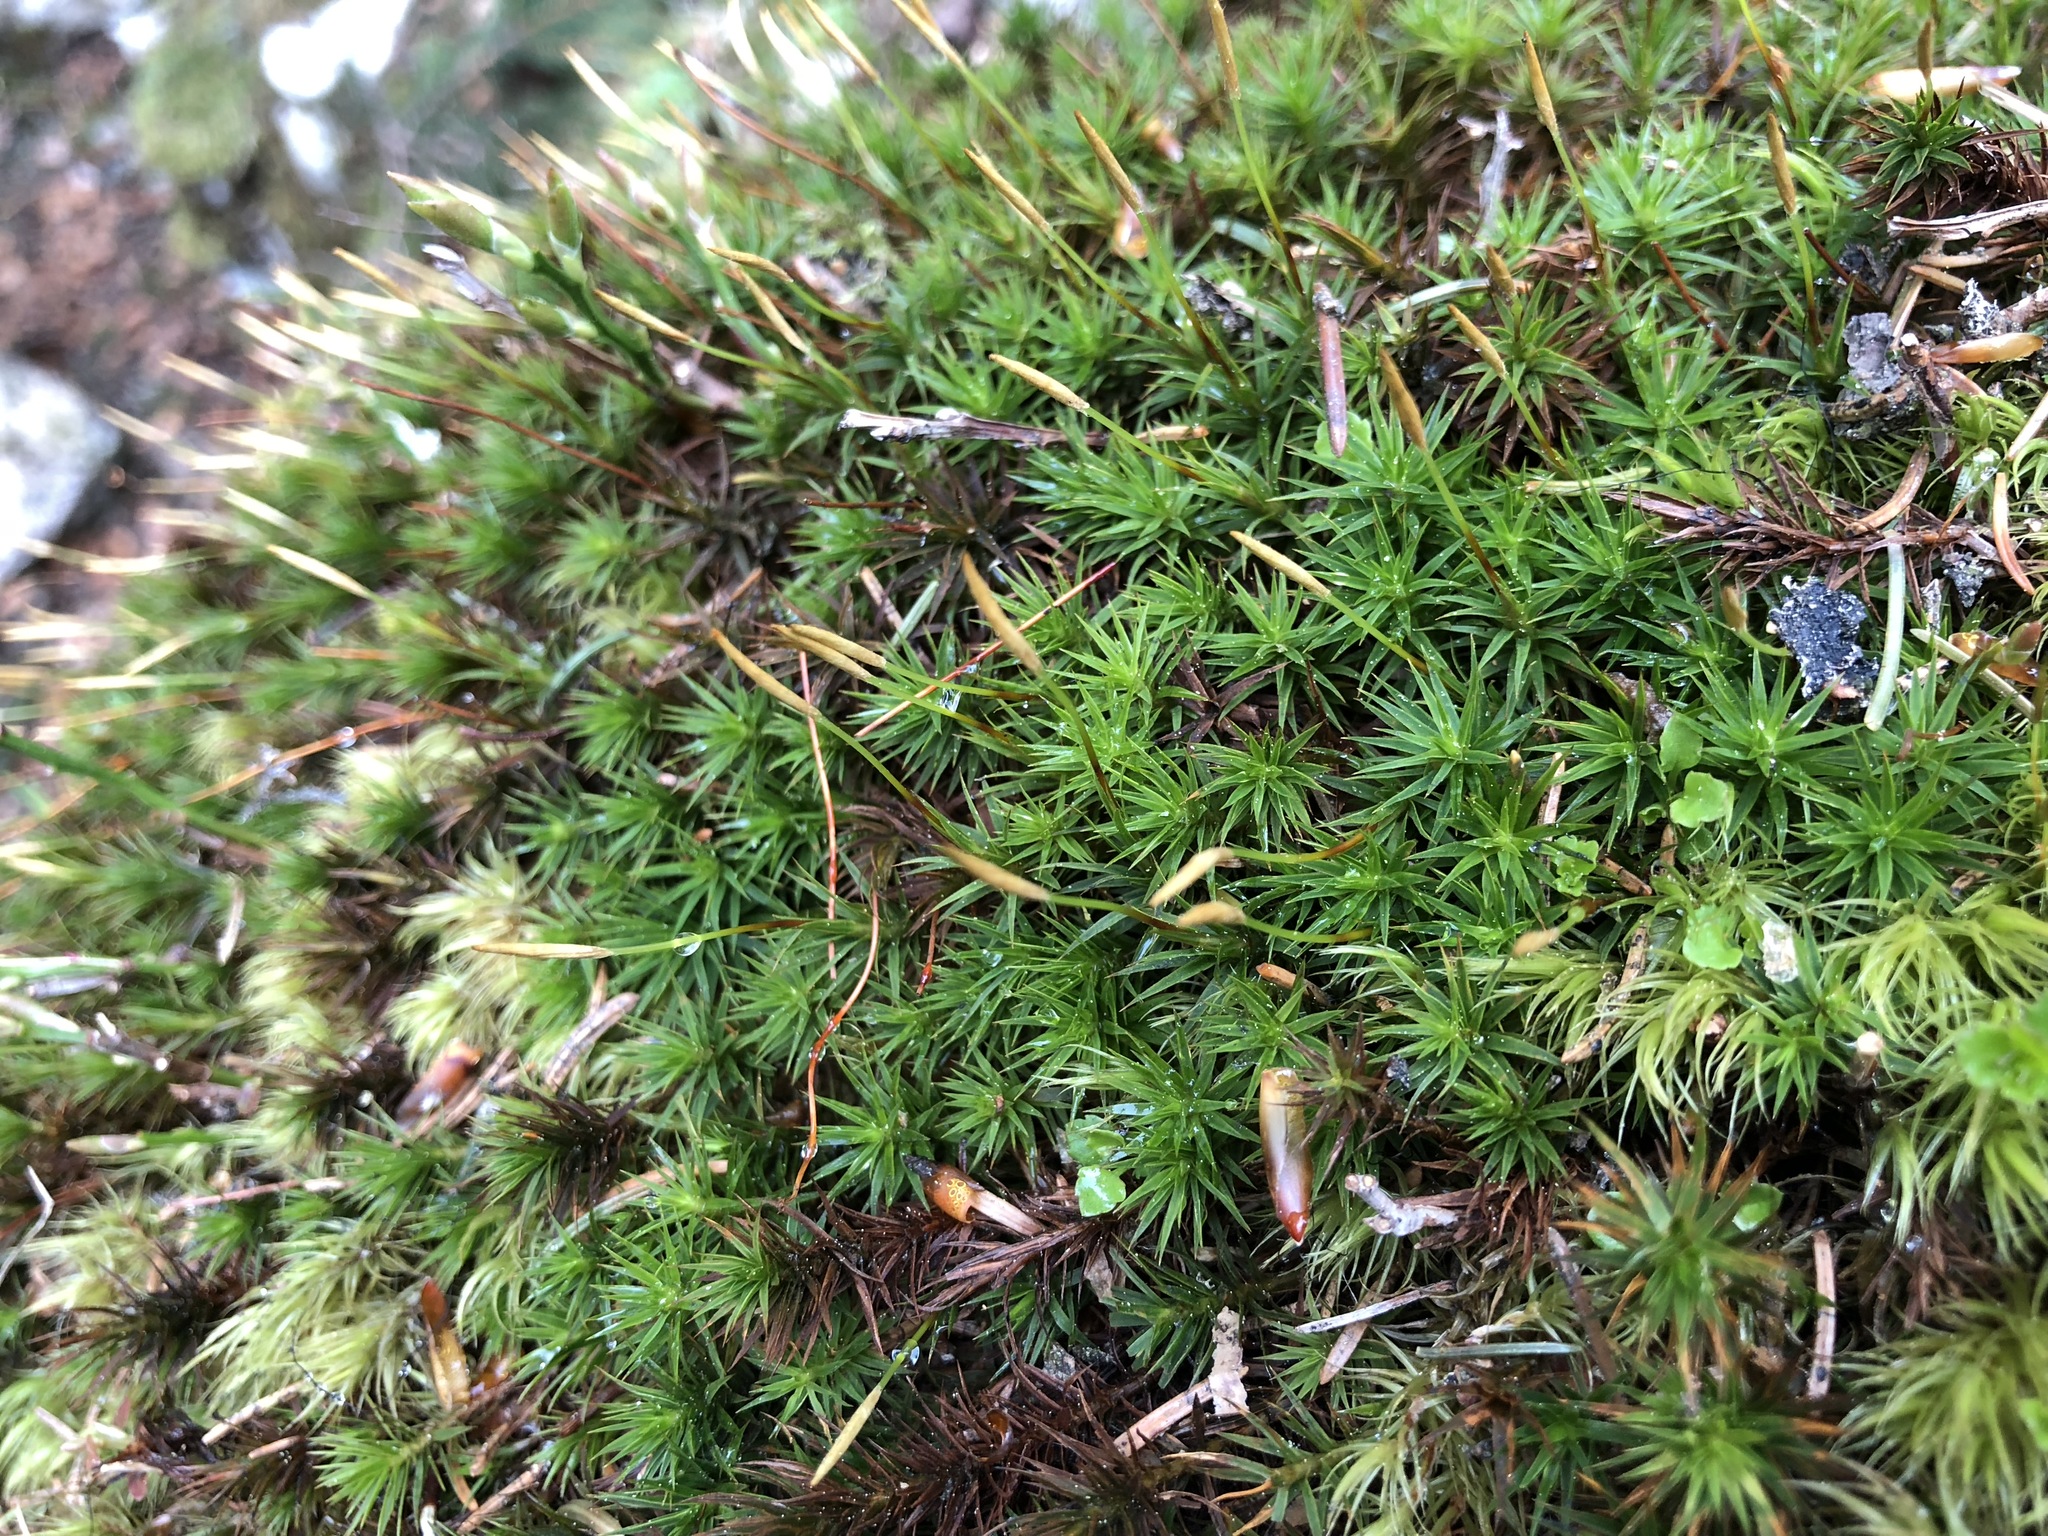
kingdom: Plantae
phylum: Bryophyta
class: Polytrichopsida
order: Polytrichales
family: Polytrichaceae
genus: Polytrichum
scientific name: Polytrichum formosum
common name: Bank haircap moss
